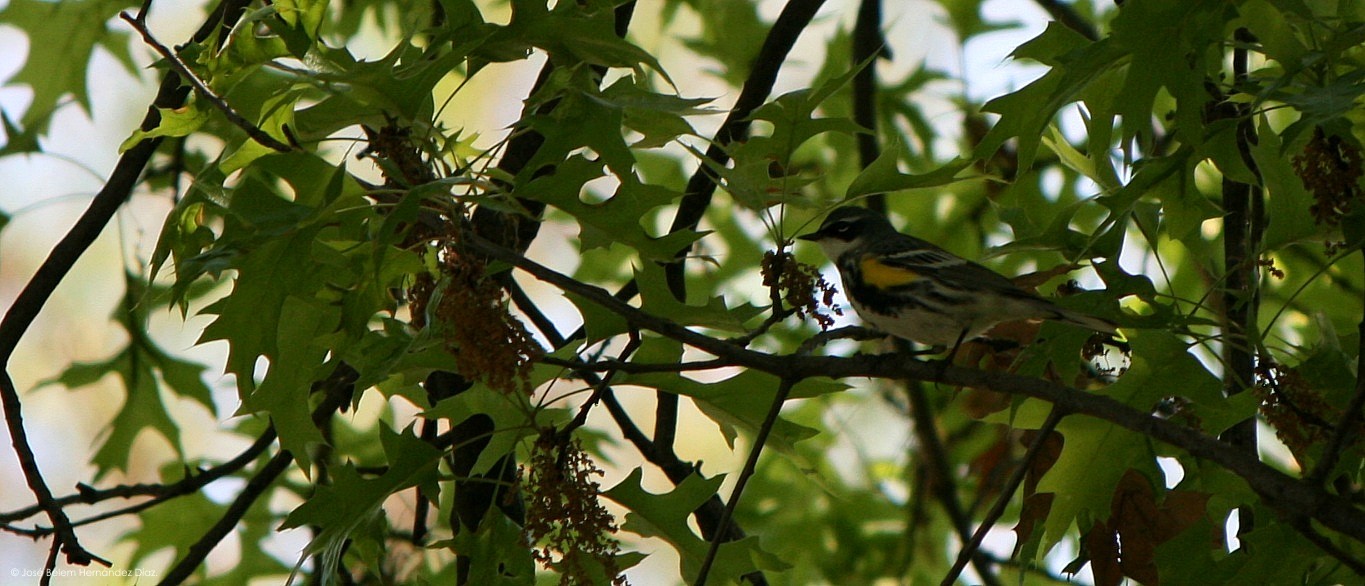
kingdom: Animalia
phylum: Chordata
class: Aves
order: Passeriformes
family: Parulidae
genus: Setophaga
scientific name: Setophaga coronata
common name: Myrtle warbler
